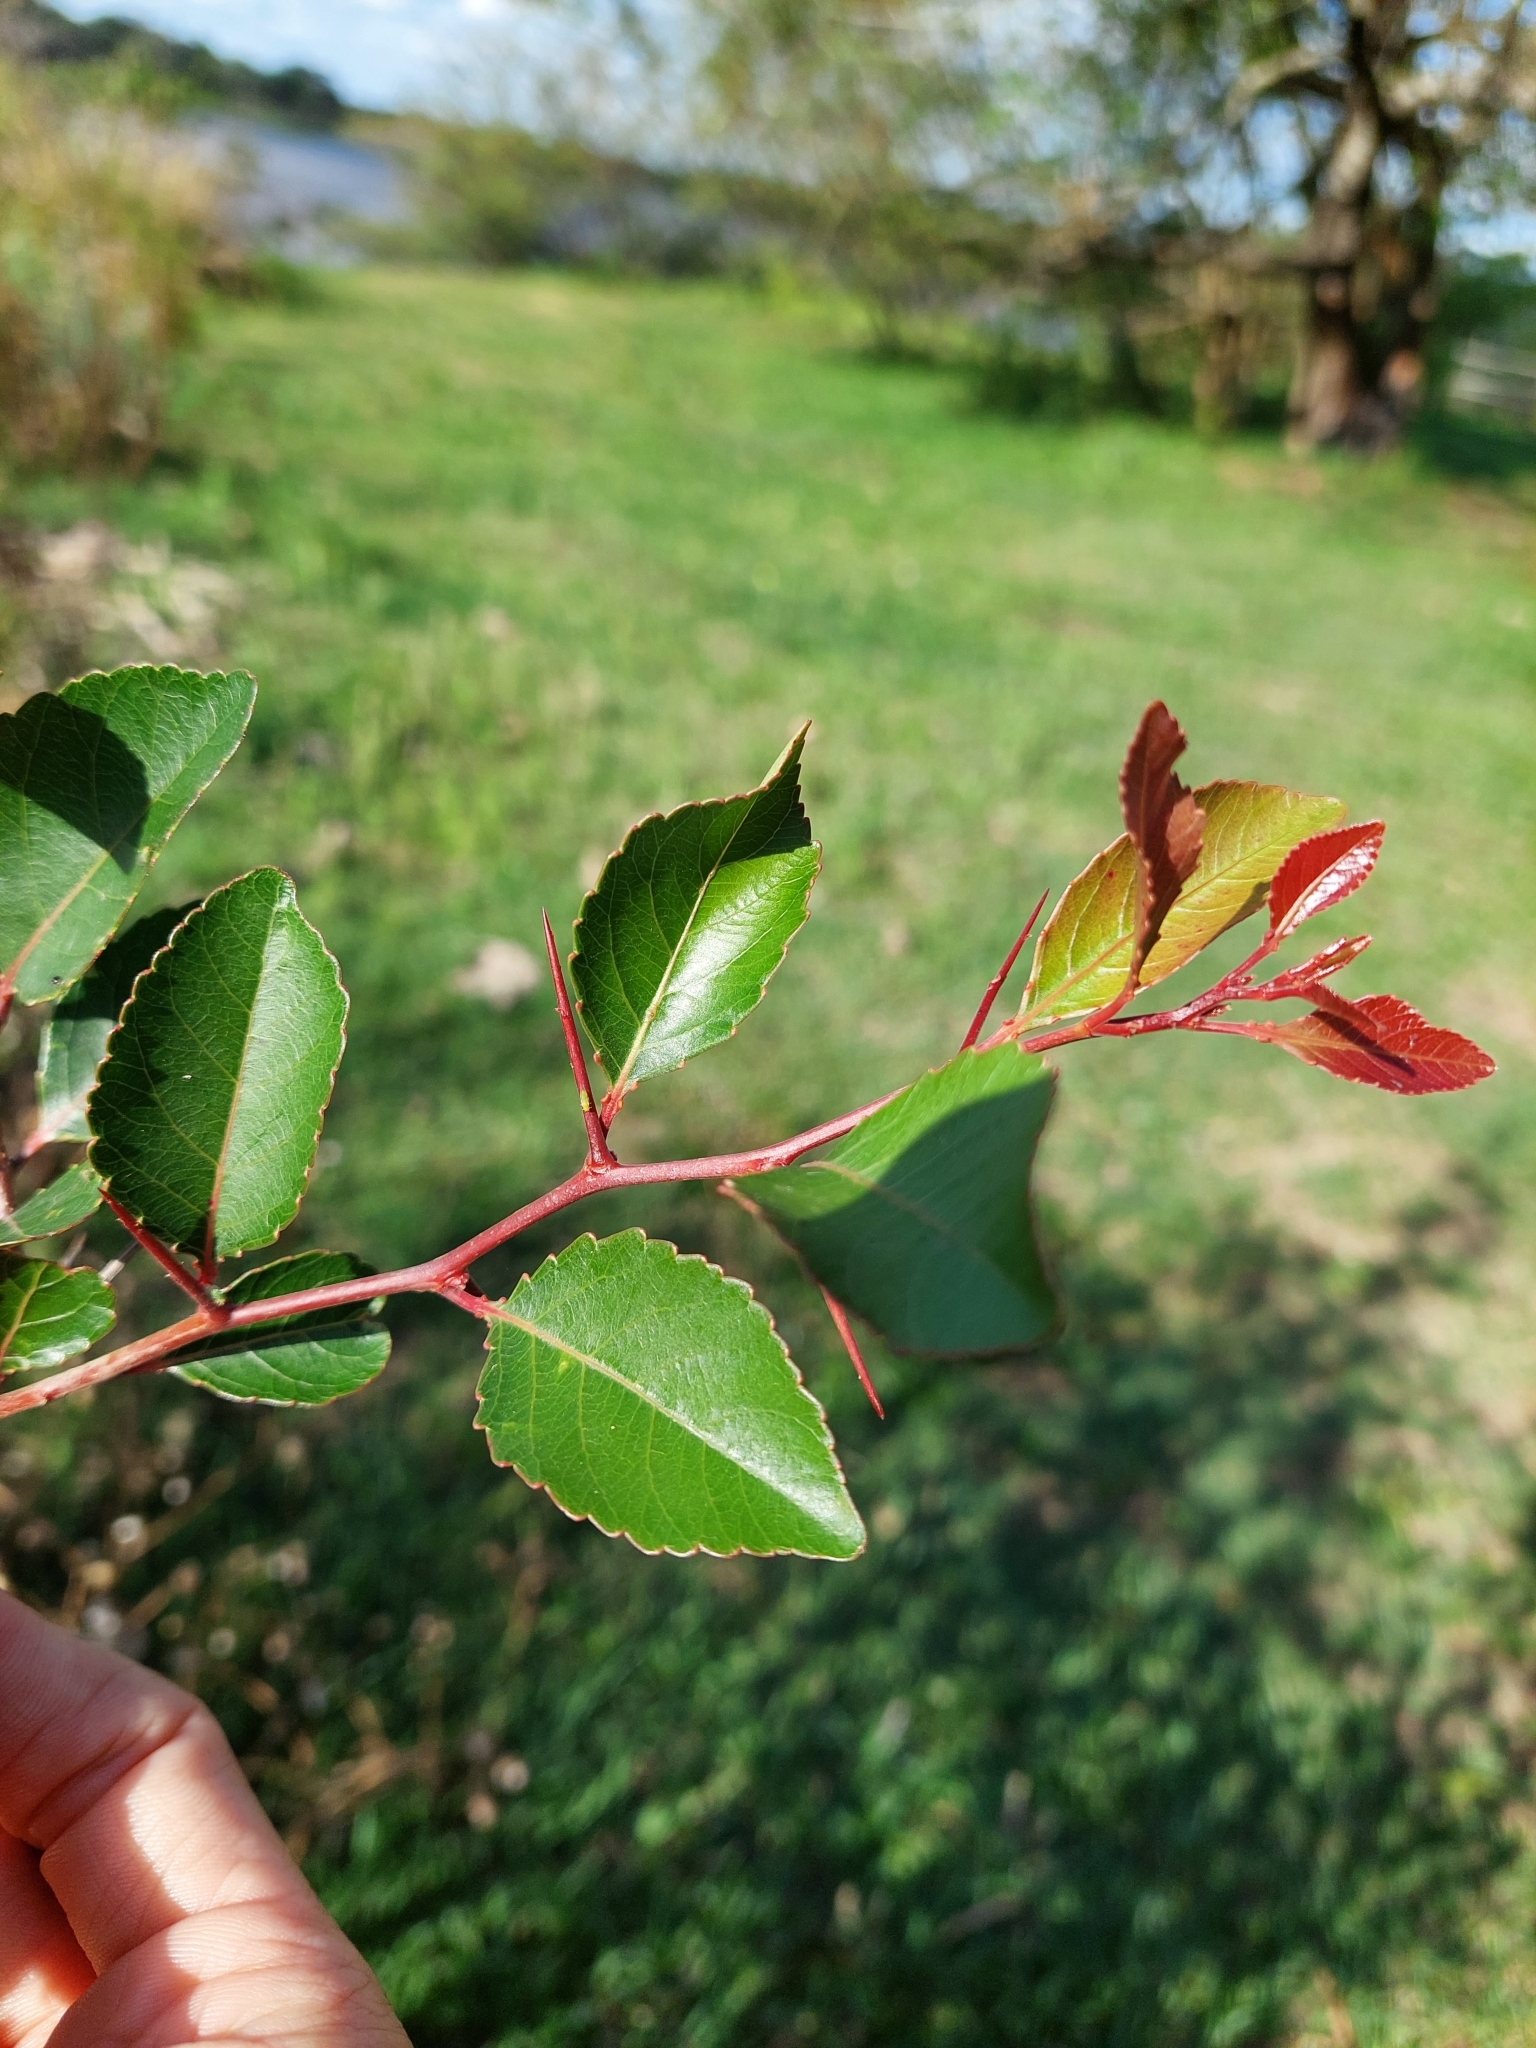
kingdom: Plantae
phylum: Tracheophyta
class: Magnoliopsida
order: Malpighiales
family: Salicaceae
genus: Xylosma
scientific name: Xylosma venosa
